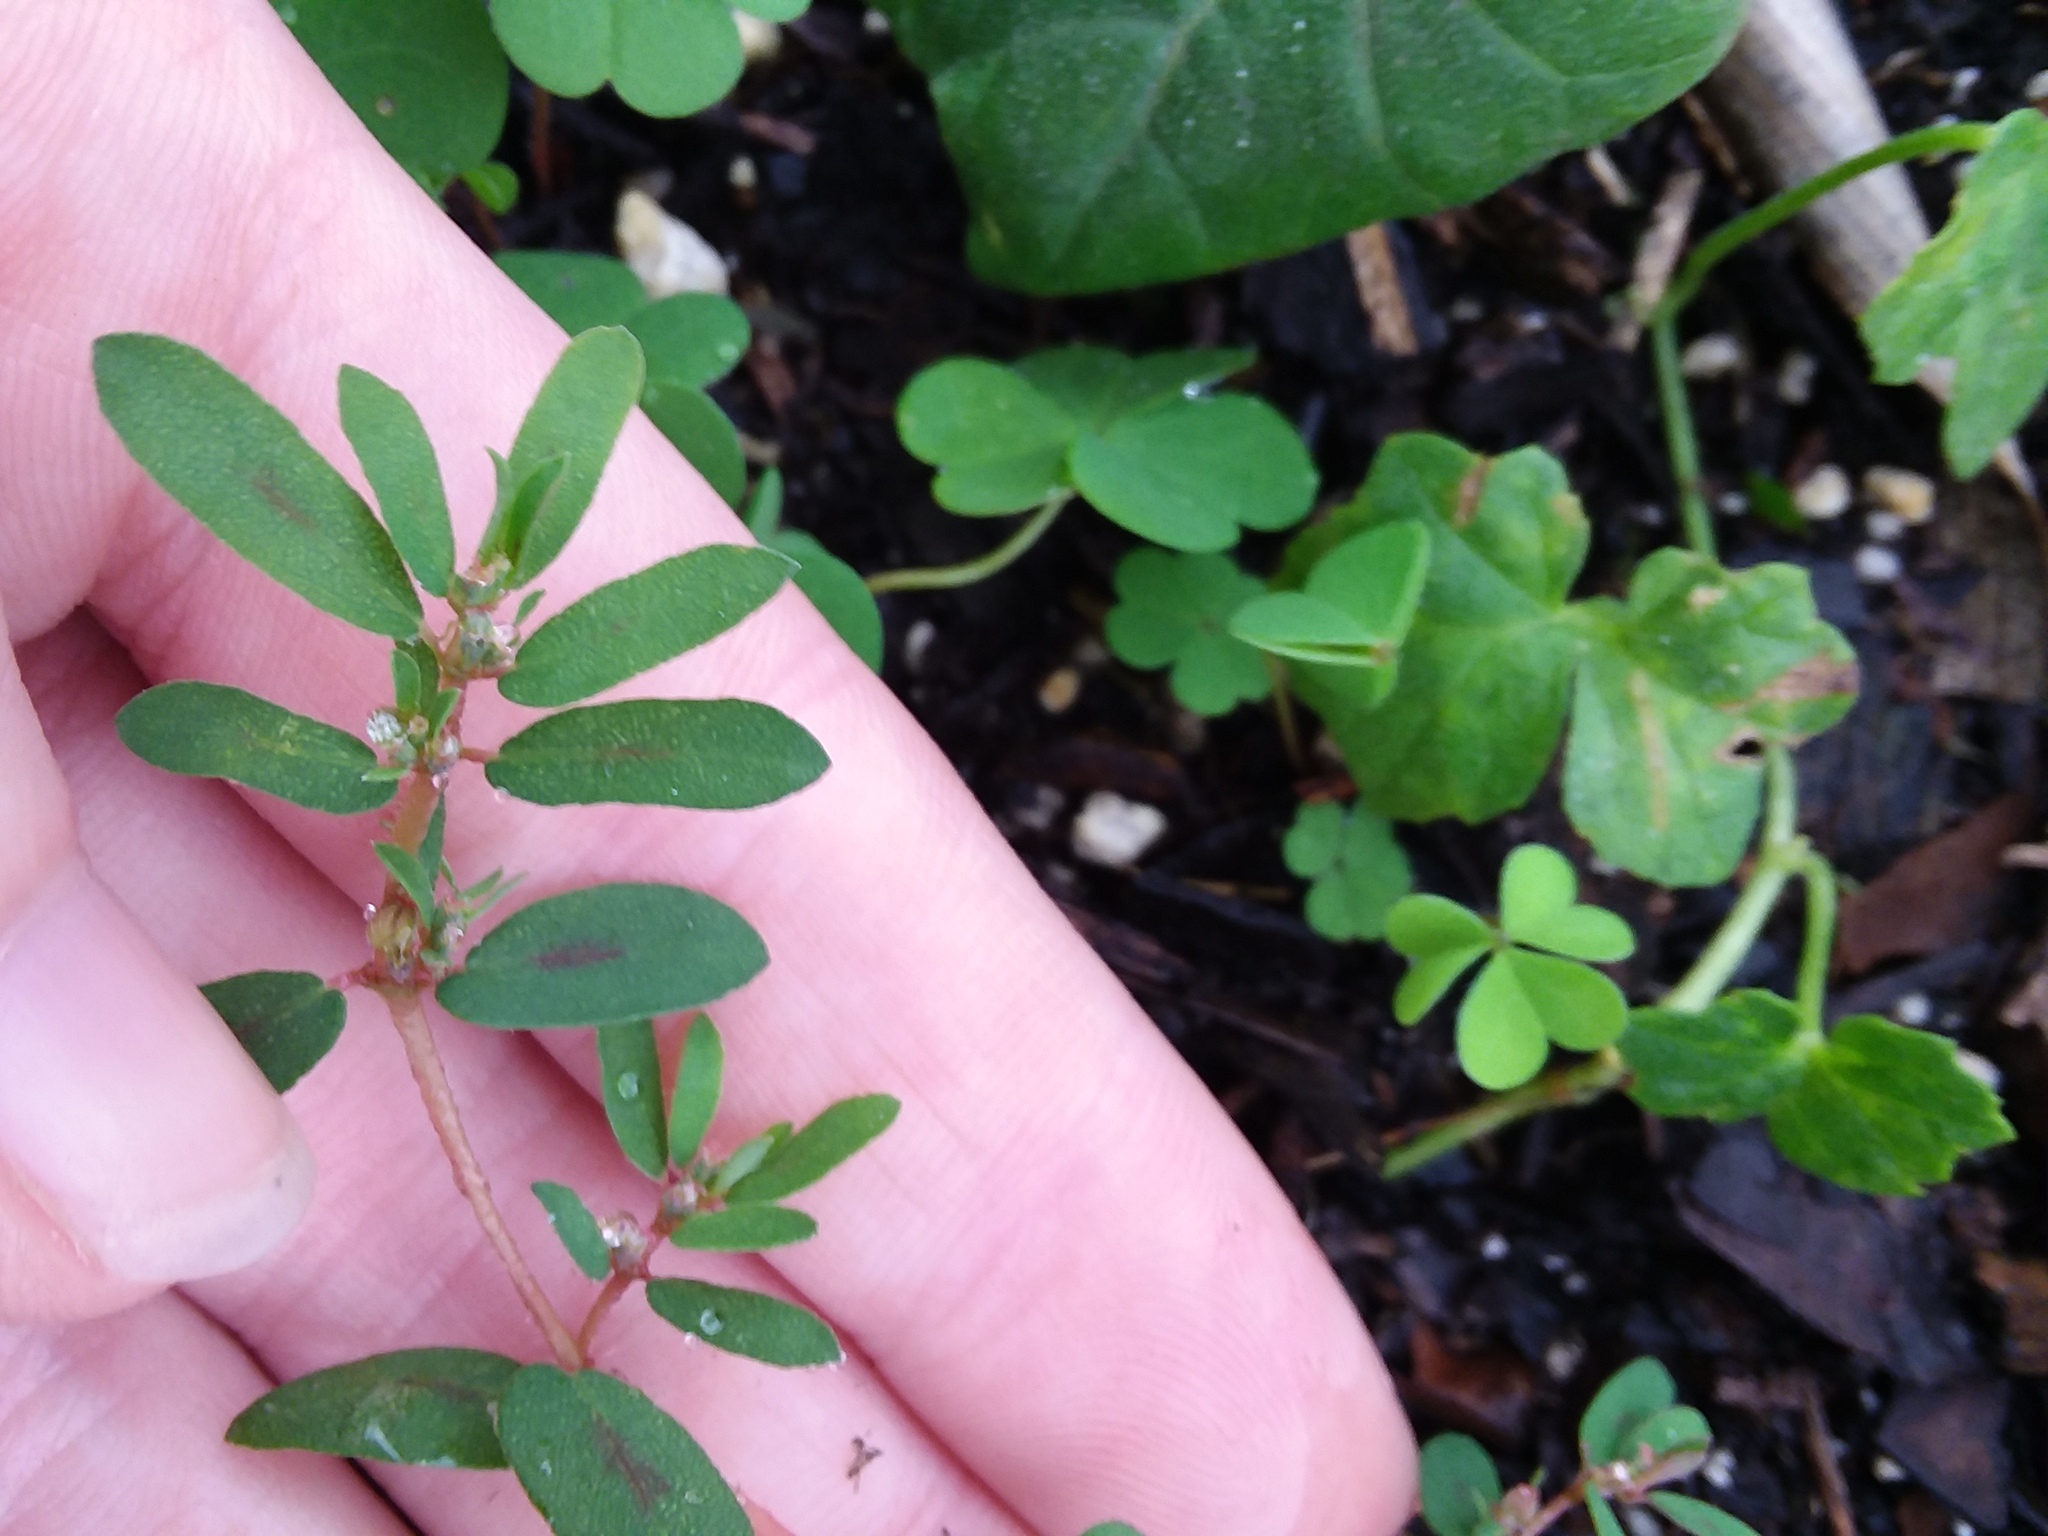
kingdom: Plantae
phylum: Tracheophyta
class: Magnoliopsida
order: Malpighiales
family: Euphorbiaceae
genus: Euphorbia
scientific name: Euphorbia maculata
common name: Spotted spurge
